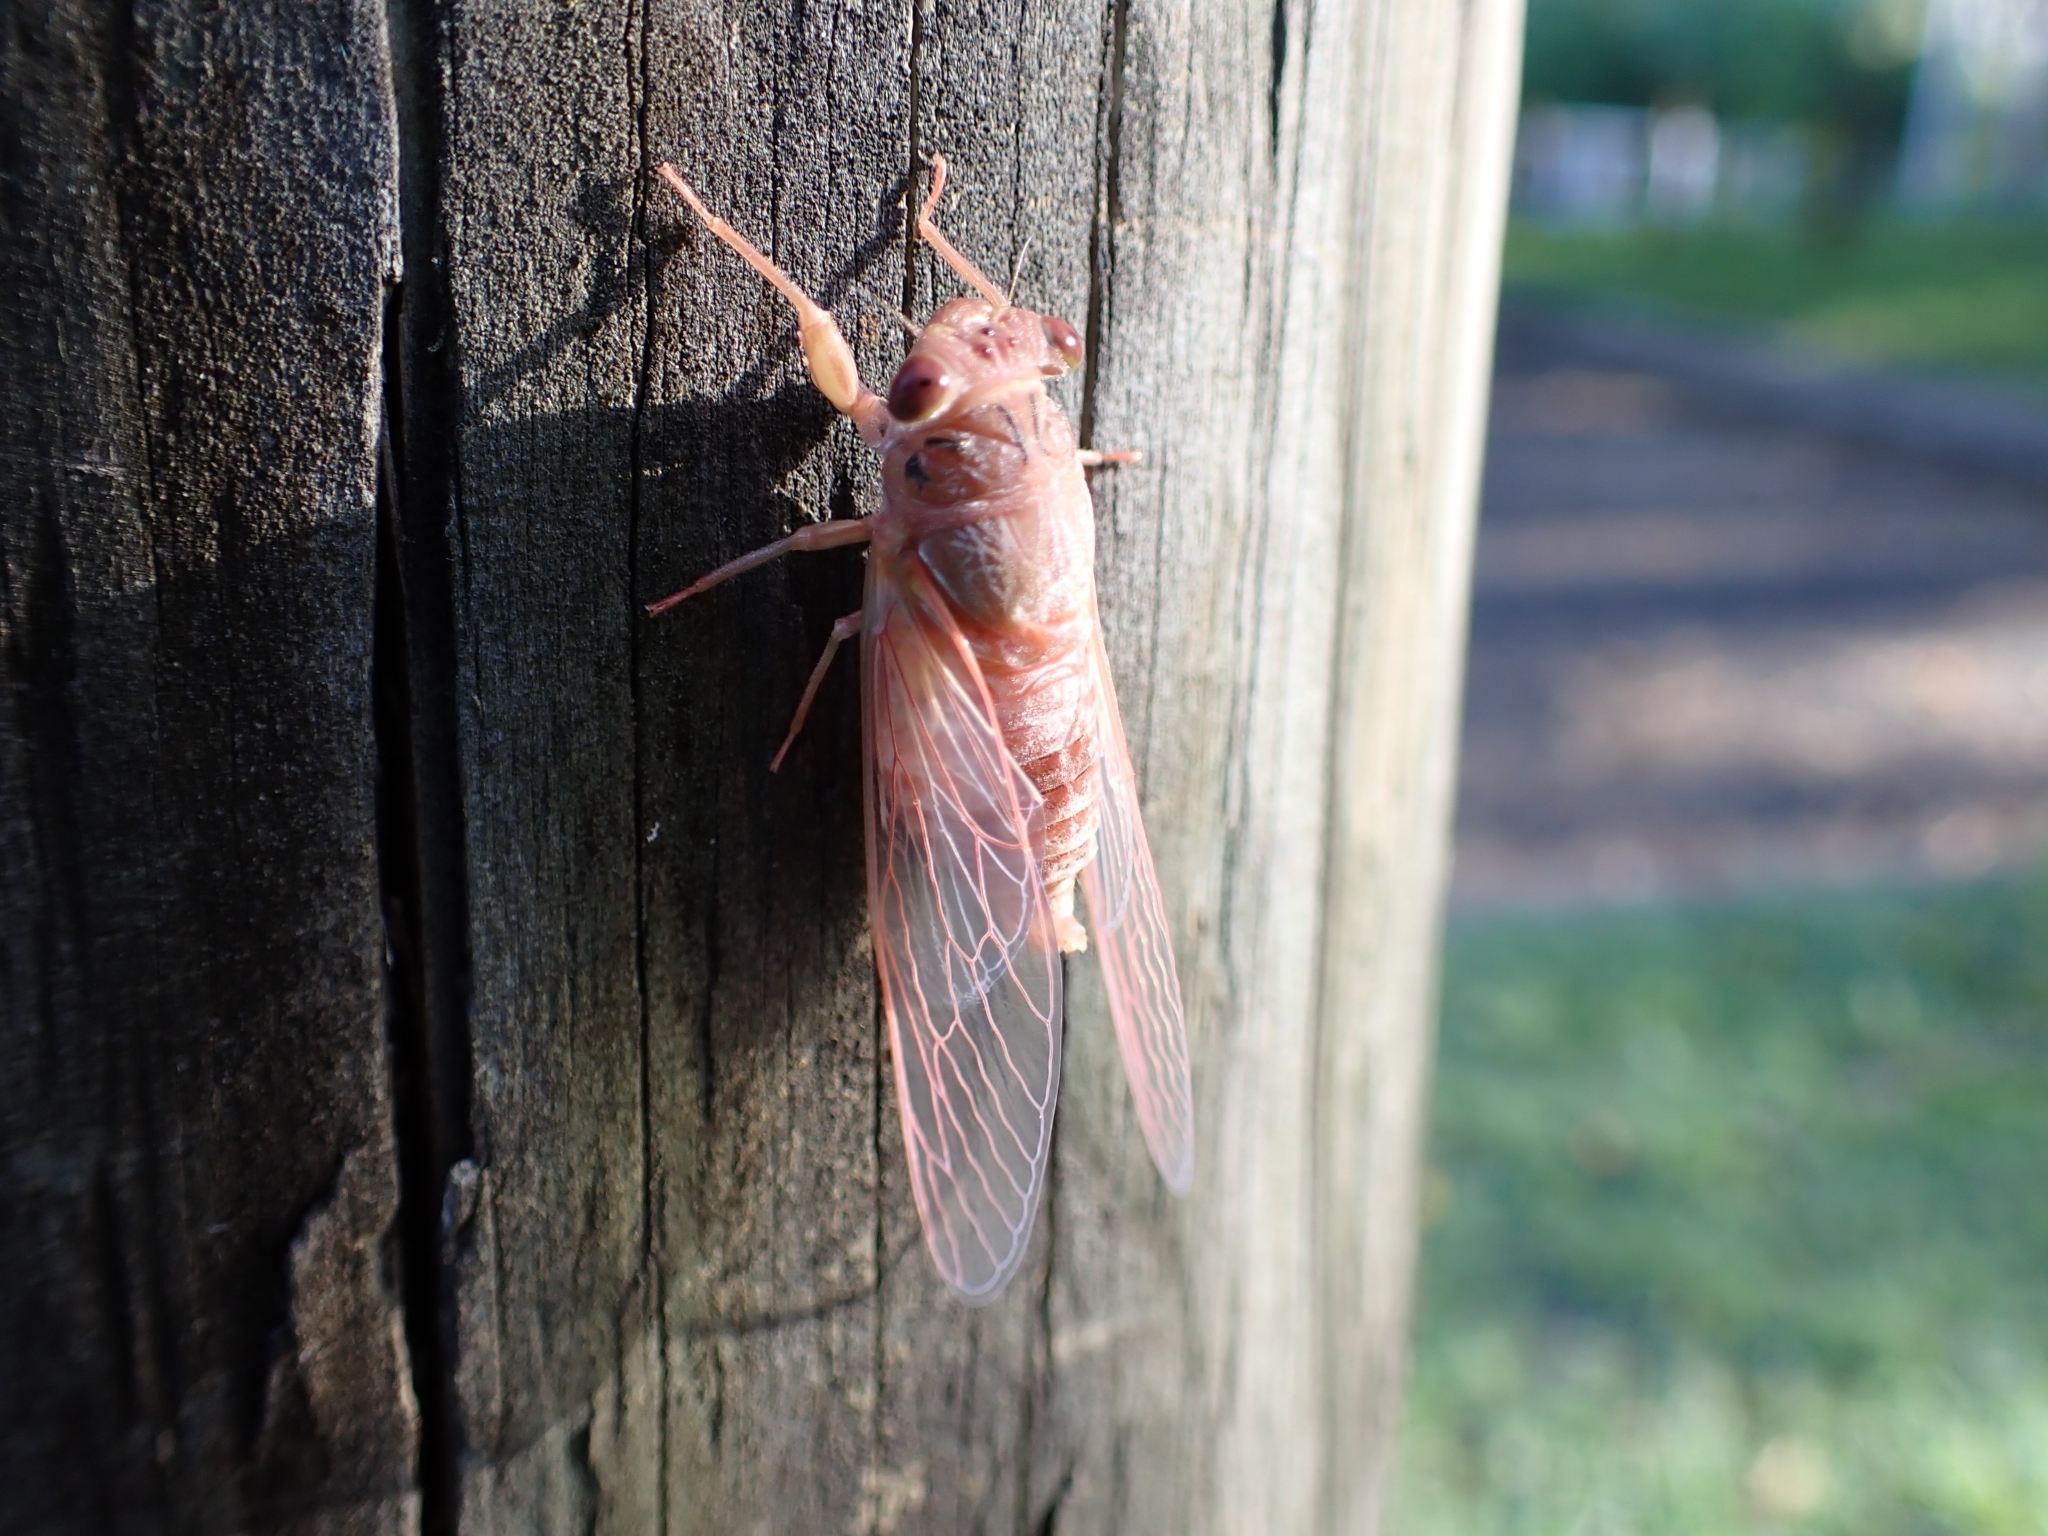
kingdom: Animalia
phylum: Arthropoda
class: Insecta
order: Hemiptera
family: Cicadidae
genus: Tamasa
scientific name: Tamasa tristigma
